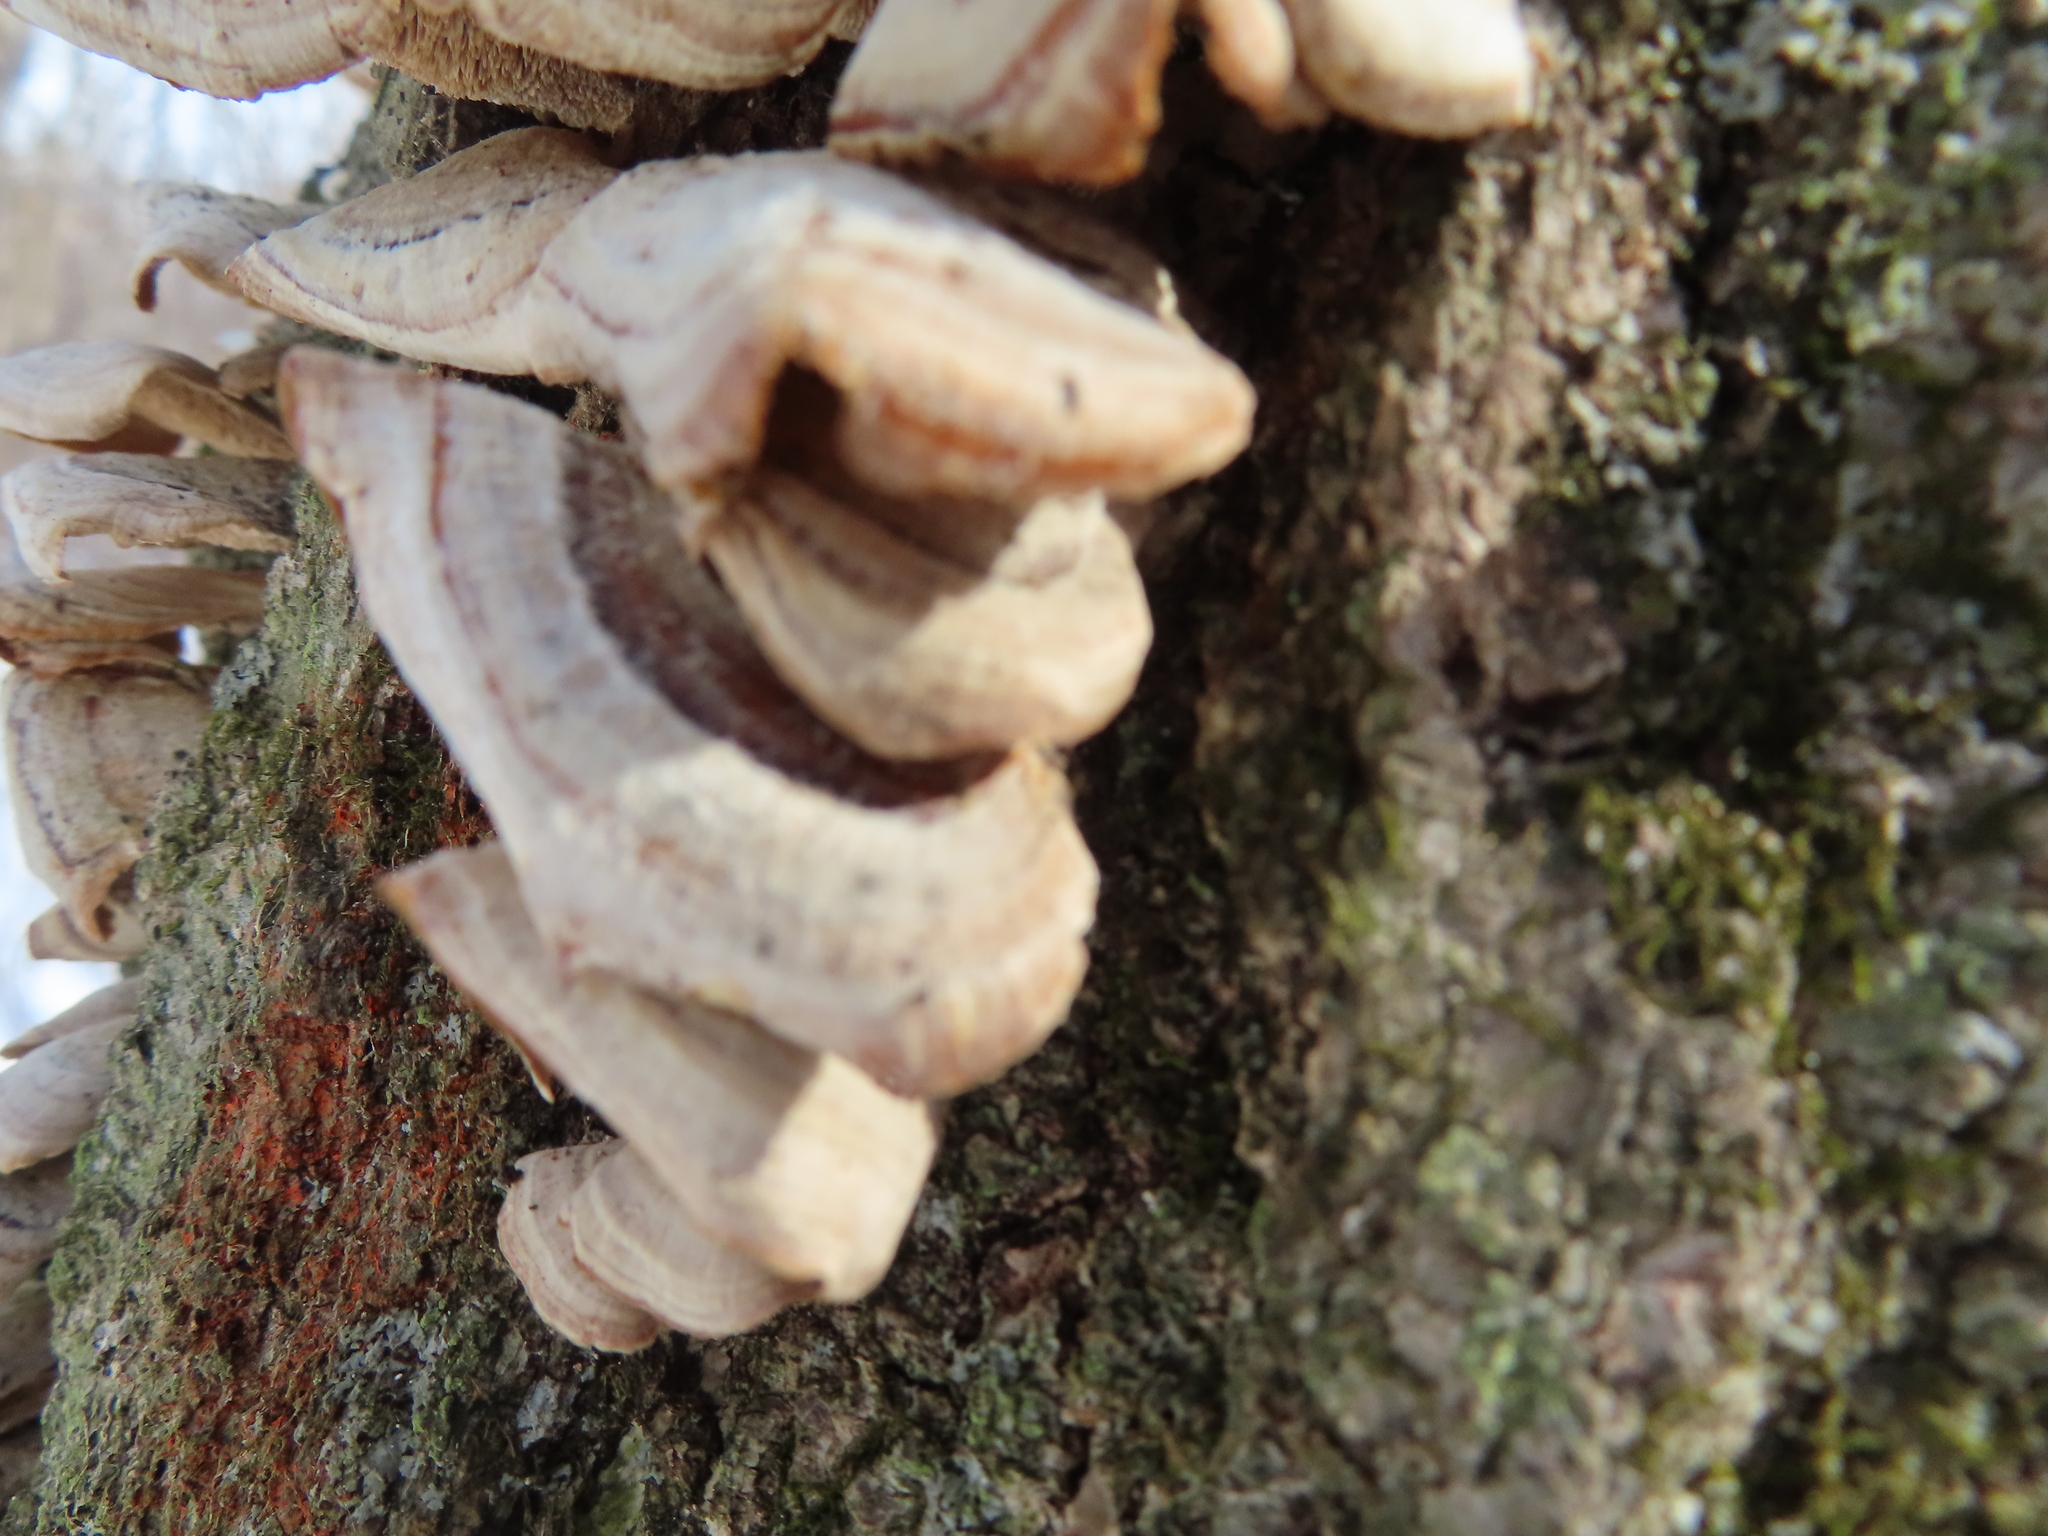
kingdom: Fungi
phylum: Ascomycota
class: Eurotiomycetes
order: Mycocaliciales
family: Mycocaliciaceae
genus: Phaeocalicium
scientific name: Phaeocalicium polyporaeum
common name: Fairy pins
